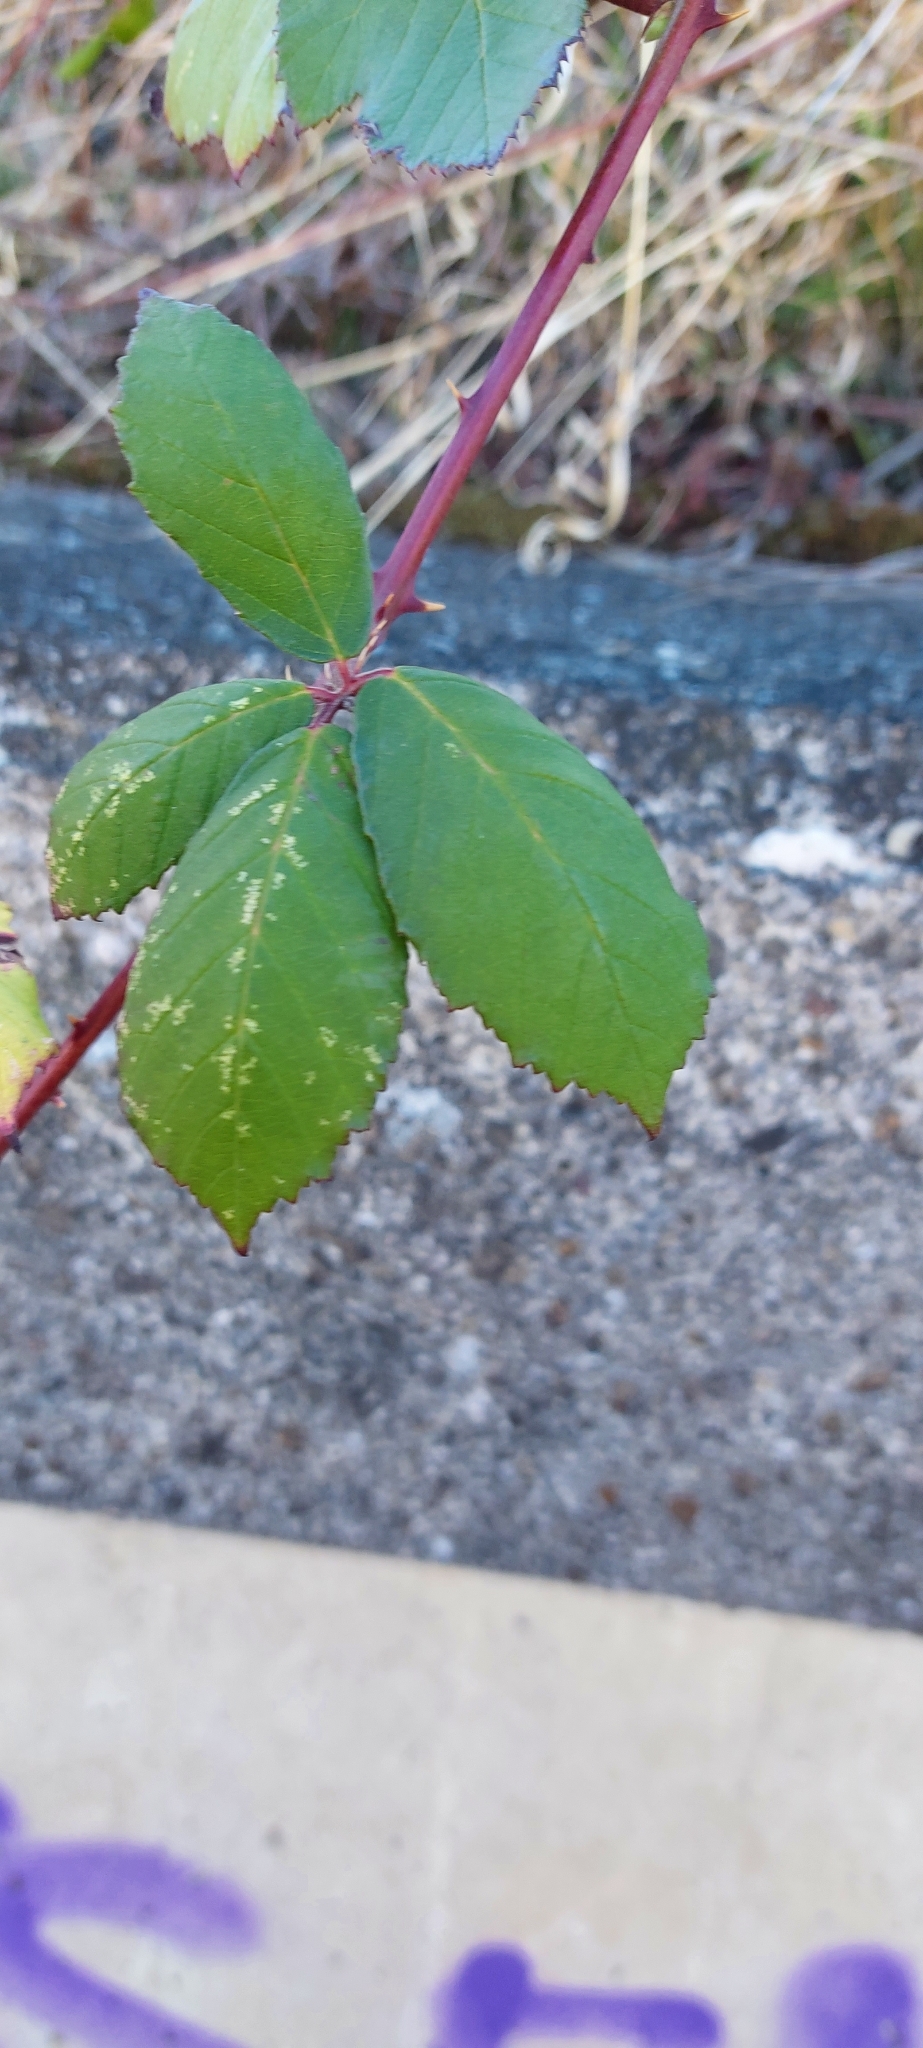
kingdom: Plantae
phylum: Tracheophyta
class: Magnoliopsida
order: Rosales
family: Rosaceae
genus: Rubus
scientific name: Rubus
